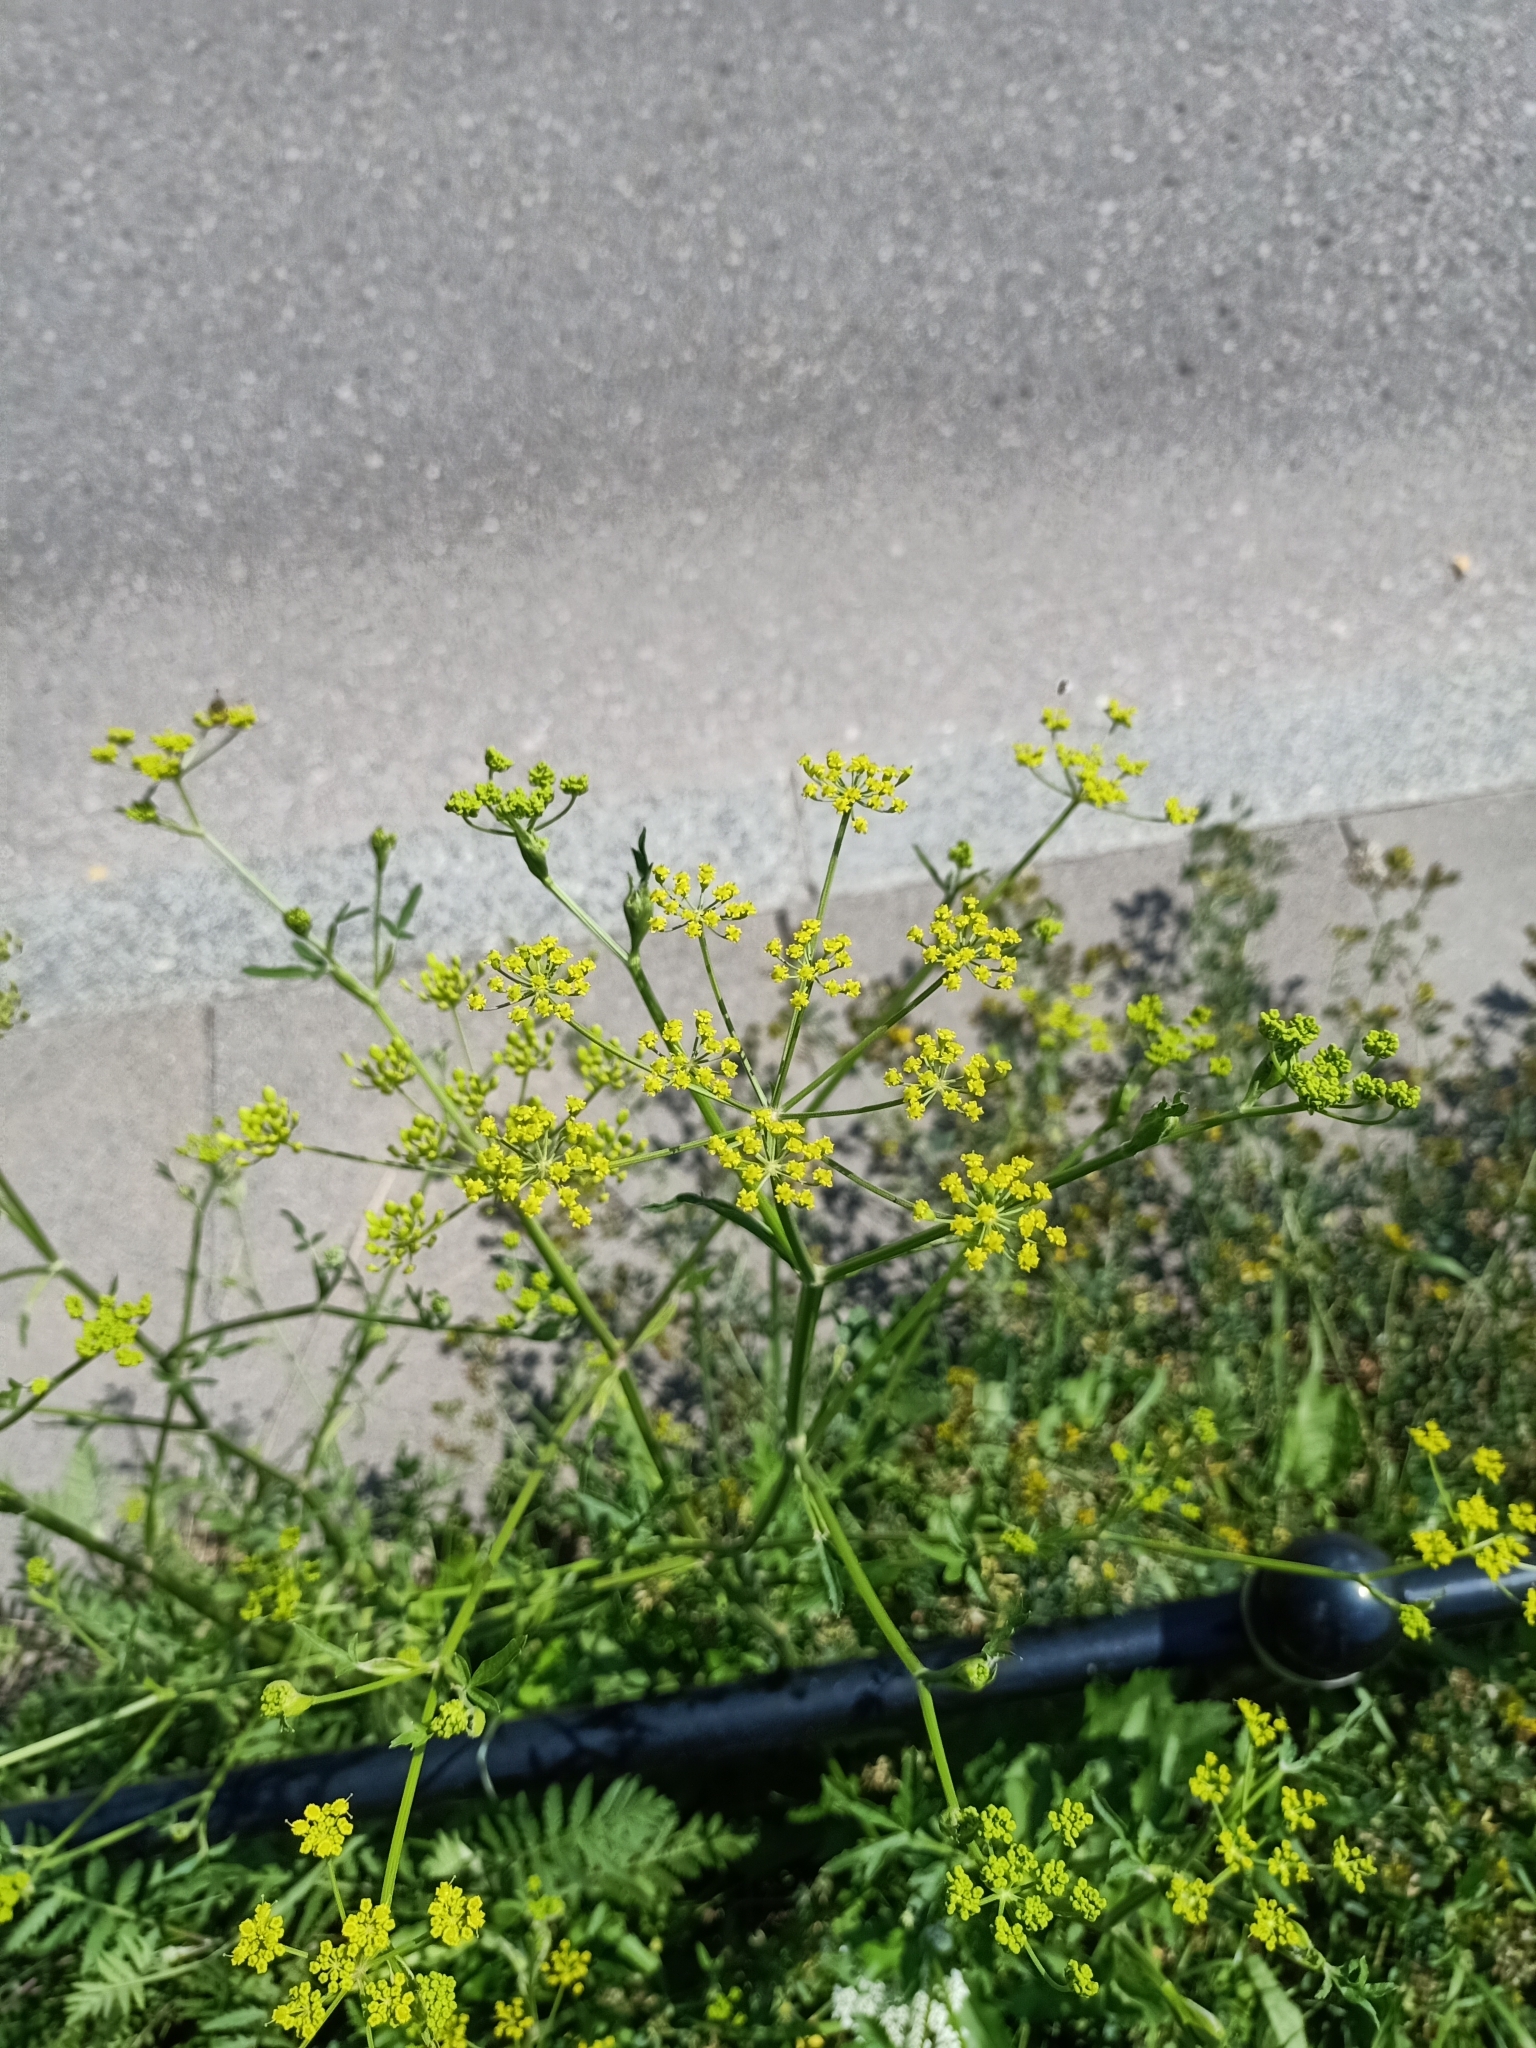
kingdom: Plantae
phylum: Tracheophyta
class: Magnoliopsida
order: Apiales
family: Apiaceae
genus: Pastinaca
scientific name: Pastinaca sativa
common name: Wild parsnip
